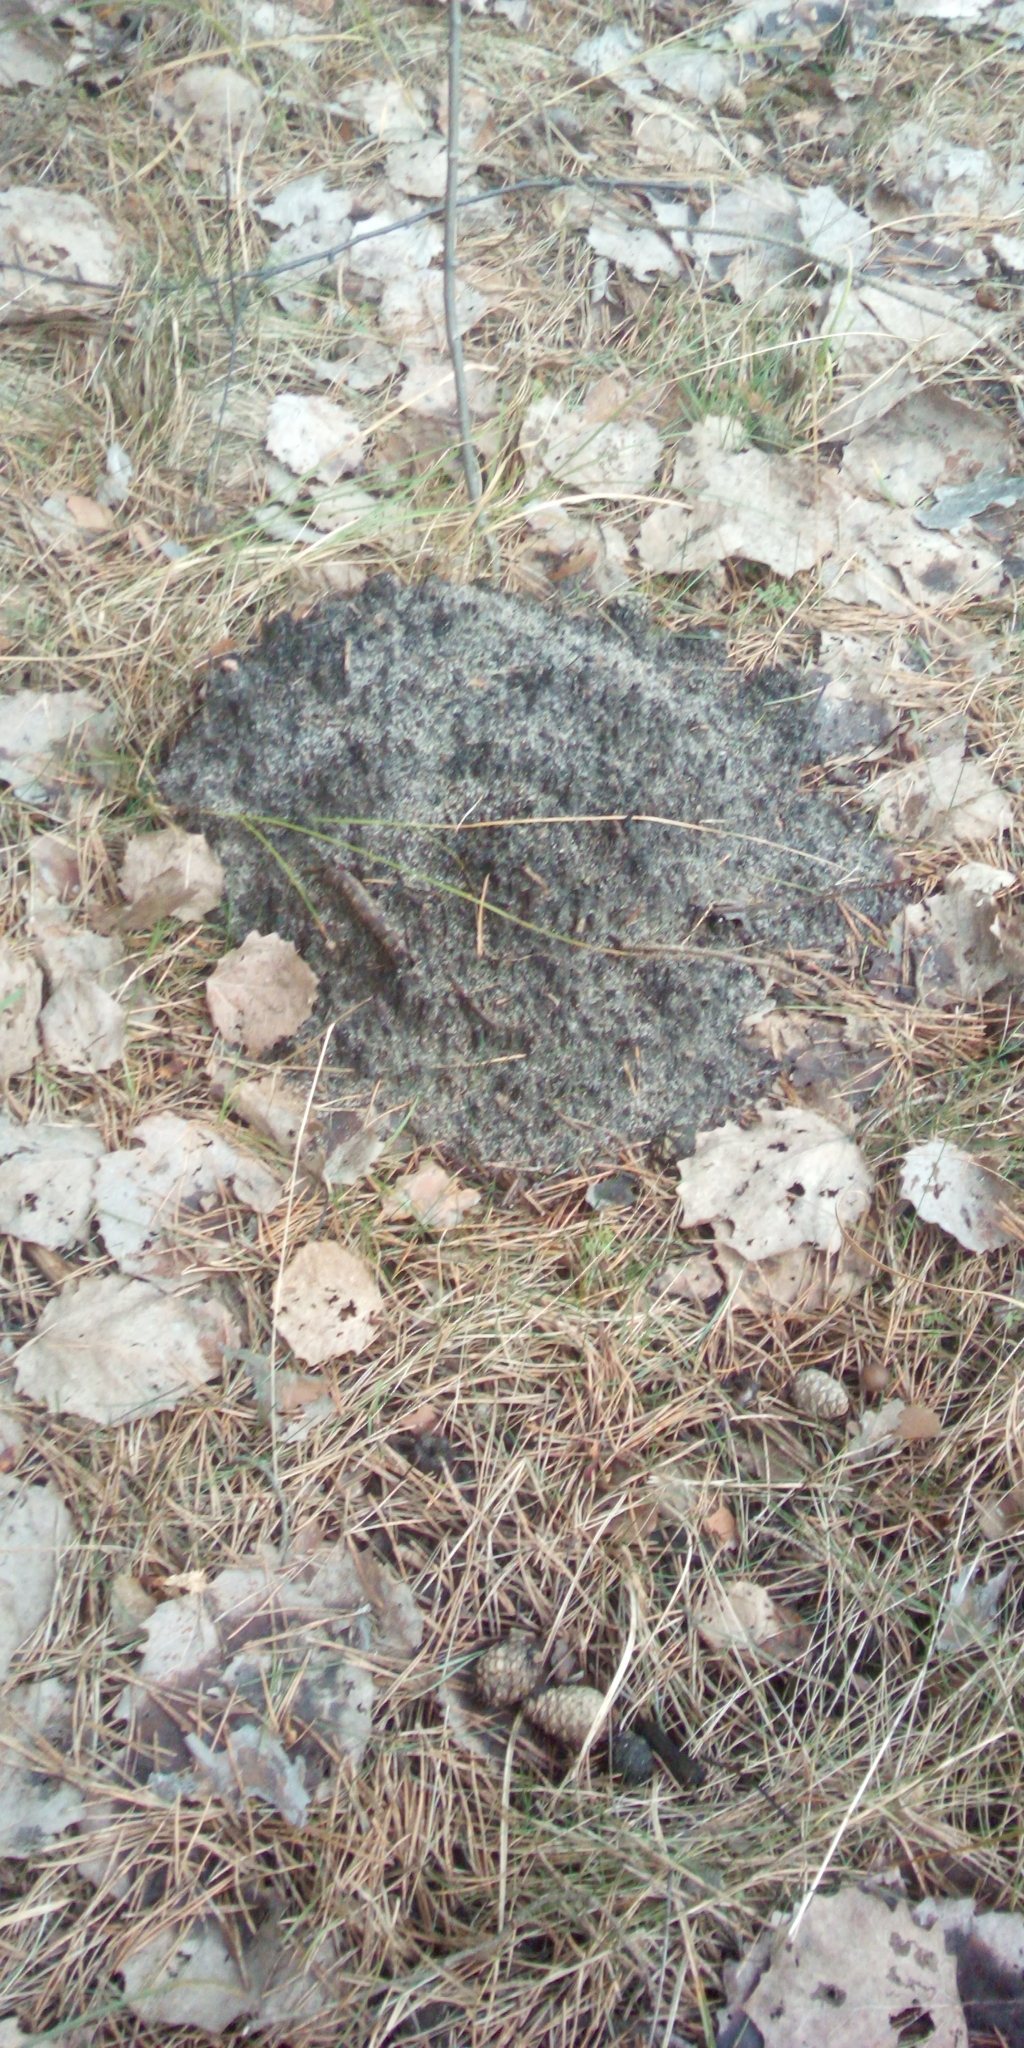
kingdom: Animalia
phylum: Chordata
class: Mammalia
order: Soricomorpha
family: Talpidae
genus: Talpa
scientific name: Talpa europaea
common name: European mole
